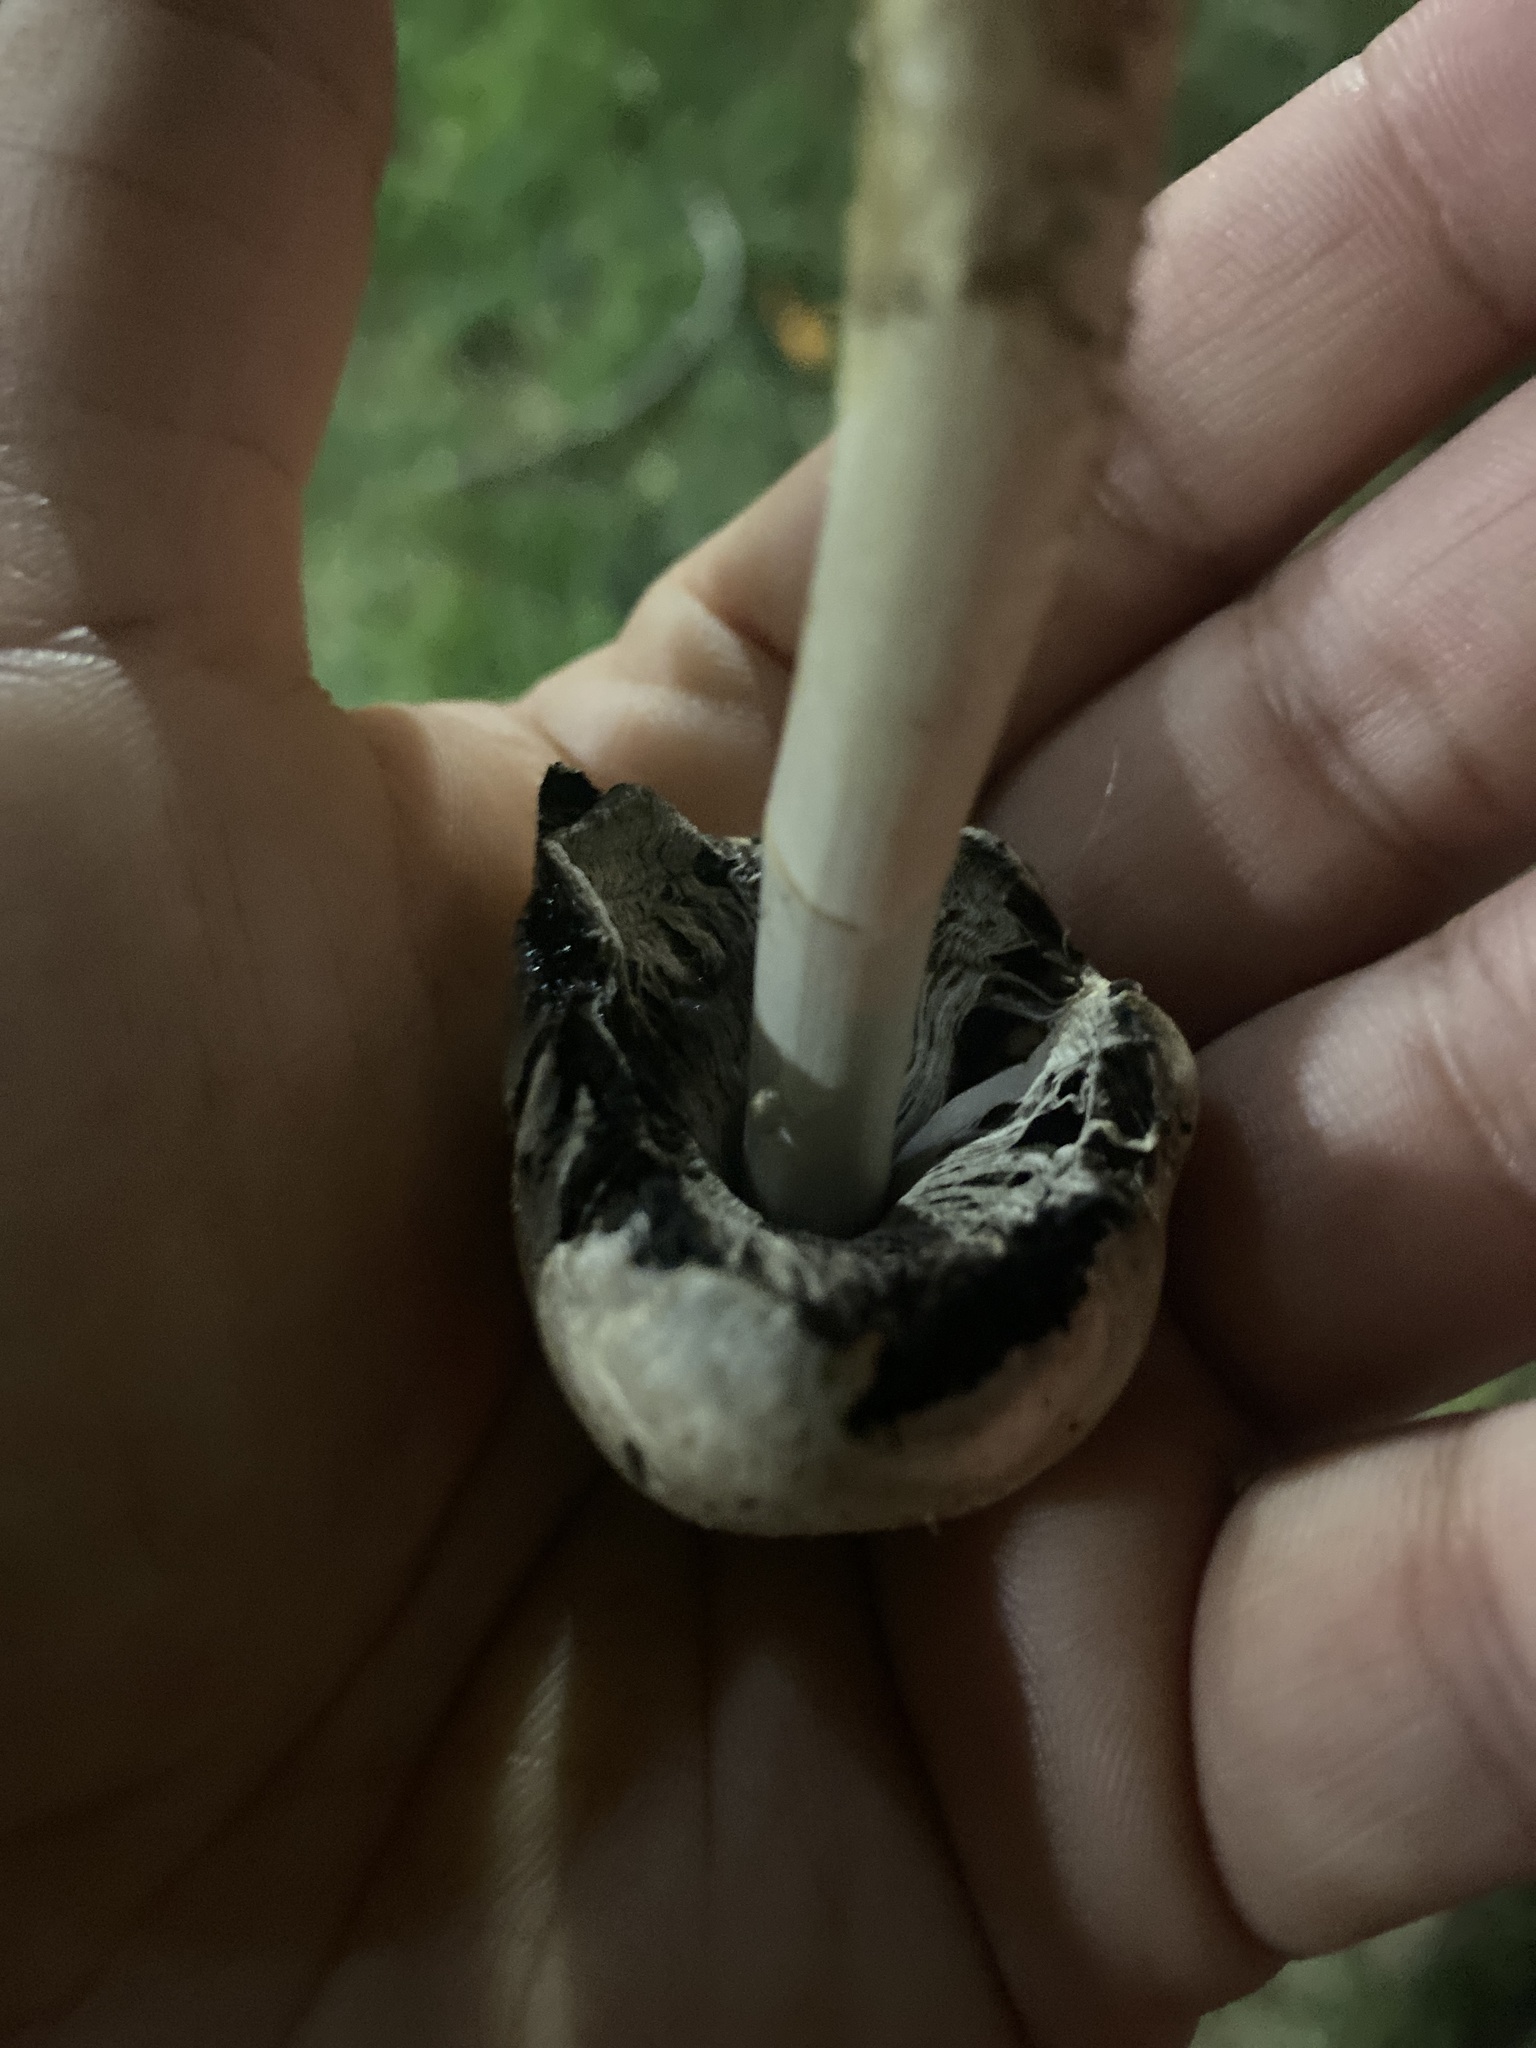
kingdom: Fungi
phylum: Basidiomycota
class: Agaricomycetes
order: Agaricales
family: Psathyrellaceae
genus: Coprinopsis
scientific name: Coprinopsis romagnesiana
